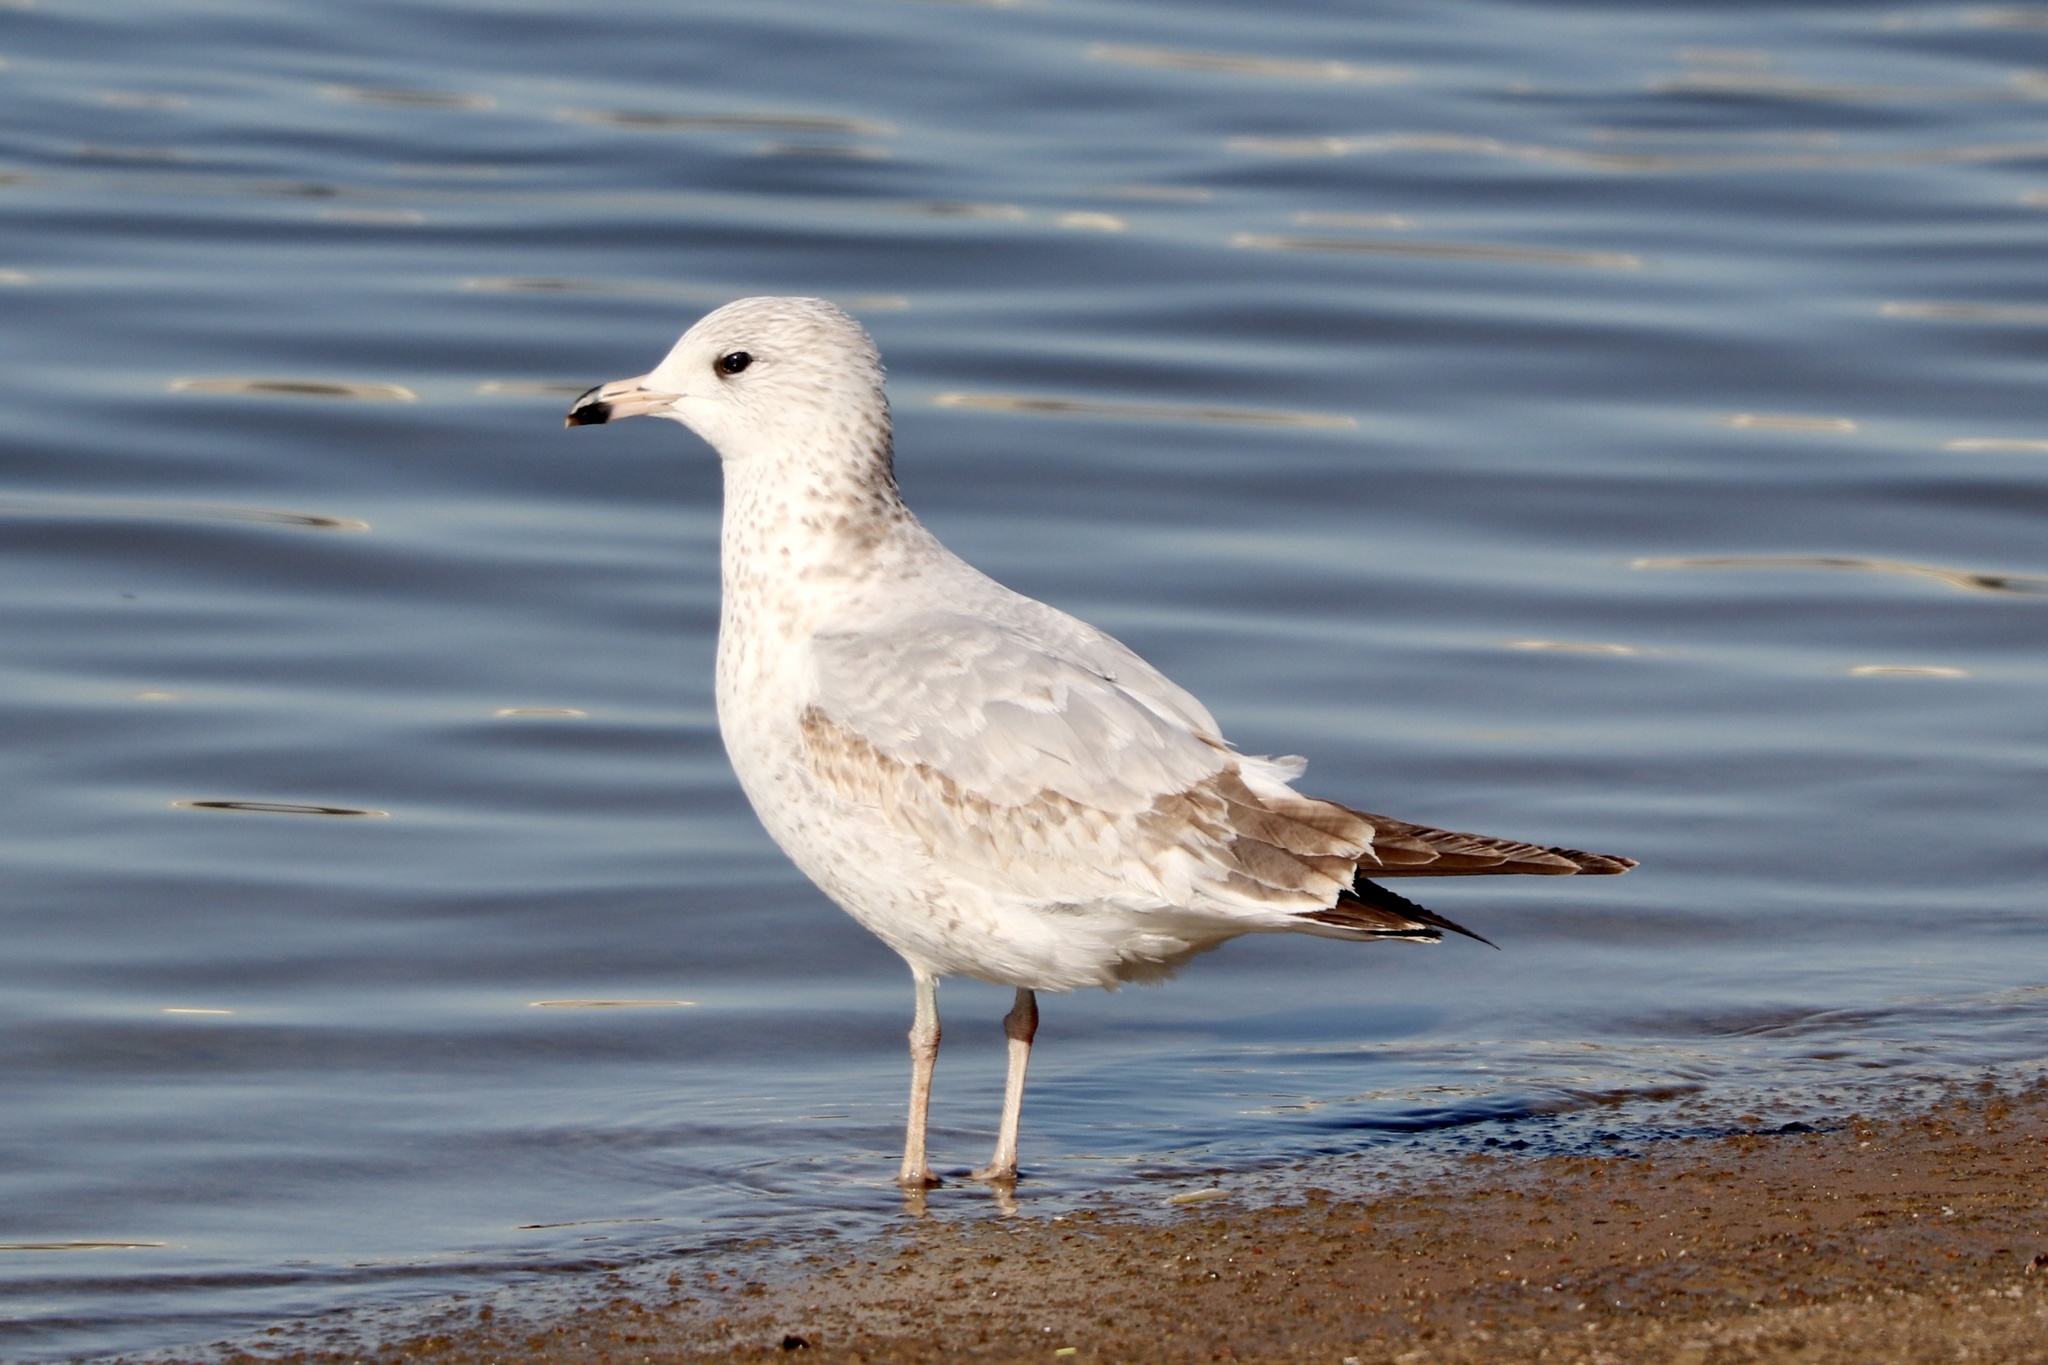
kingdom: Animalia
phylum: Chordata
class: Aves
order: Charadriiformes
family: Laridae
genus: Larus
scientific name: Larus delawarensis
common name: Ring-billed gull
